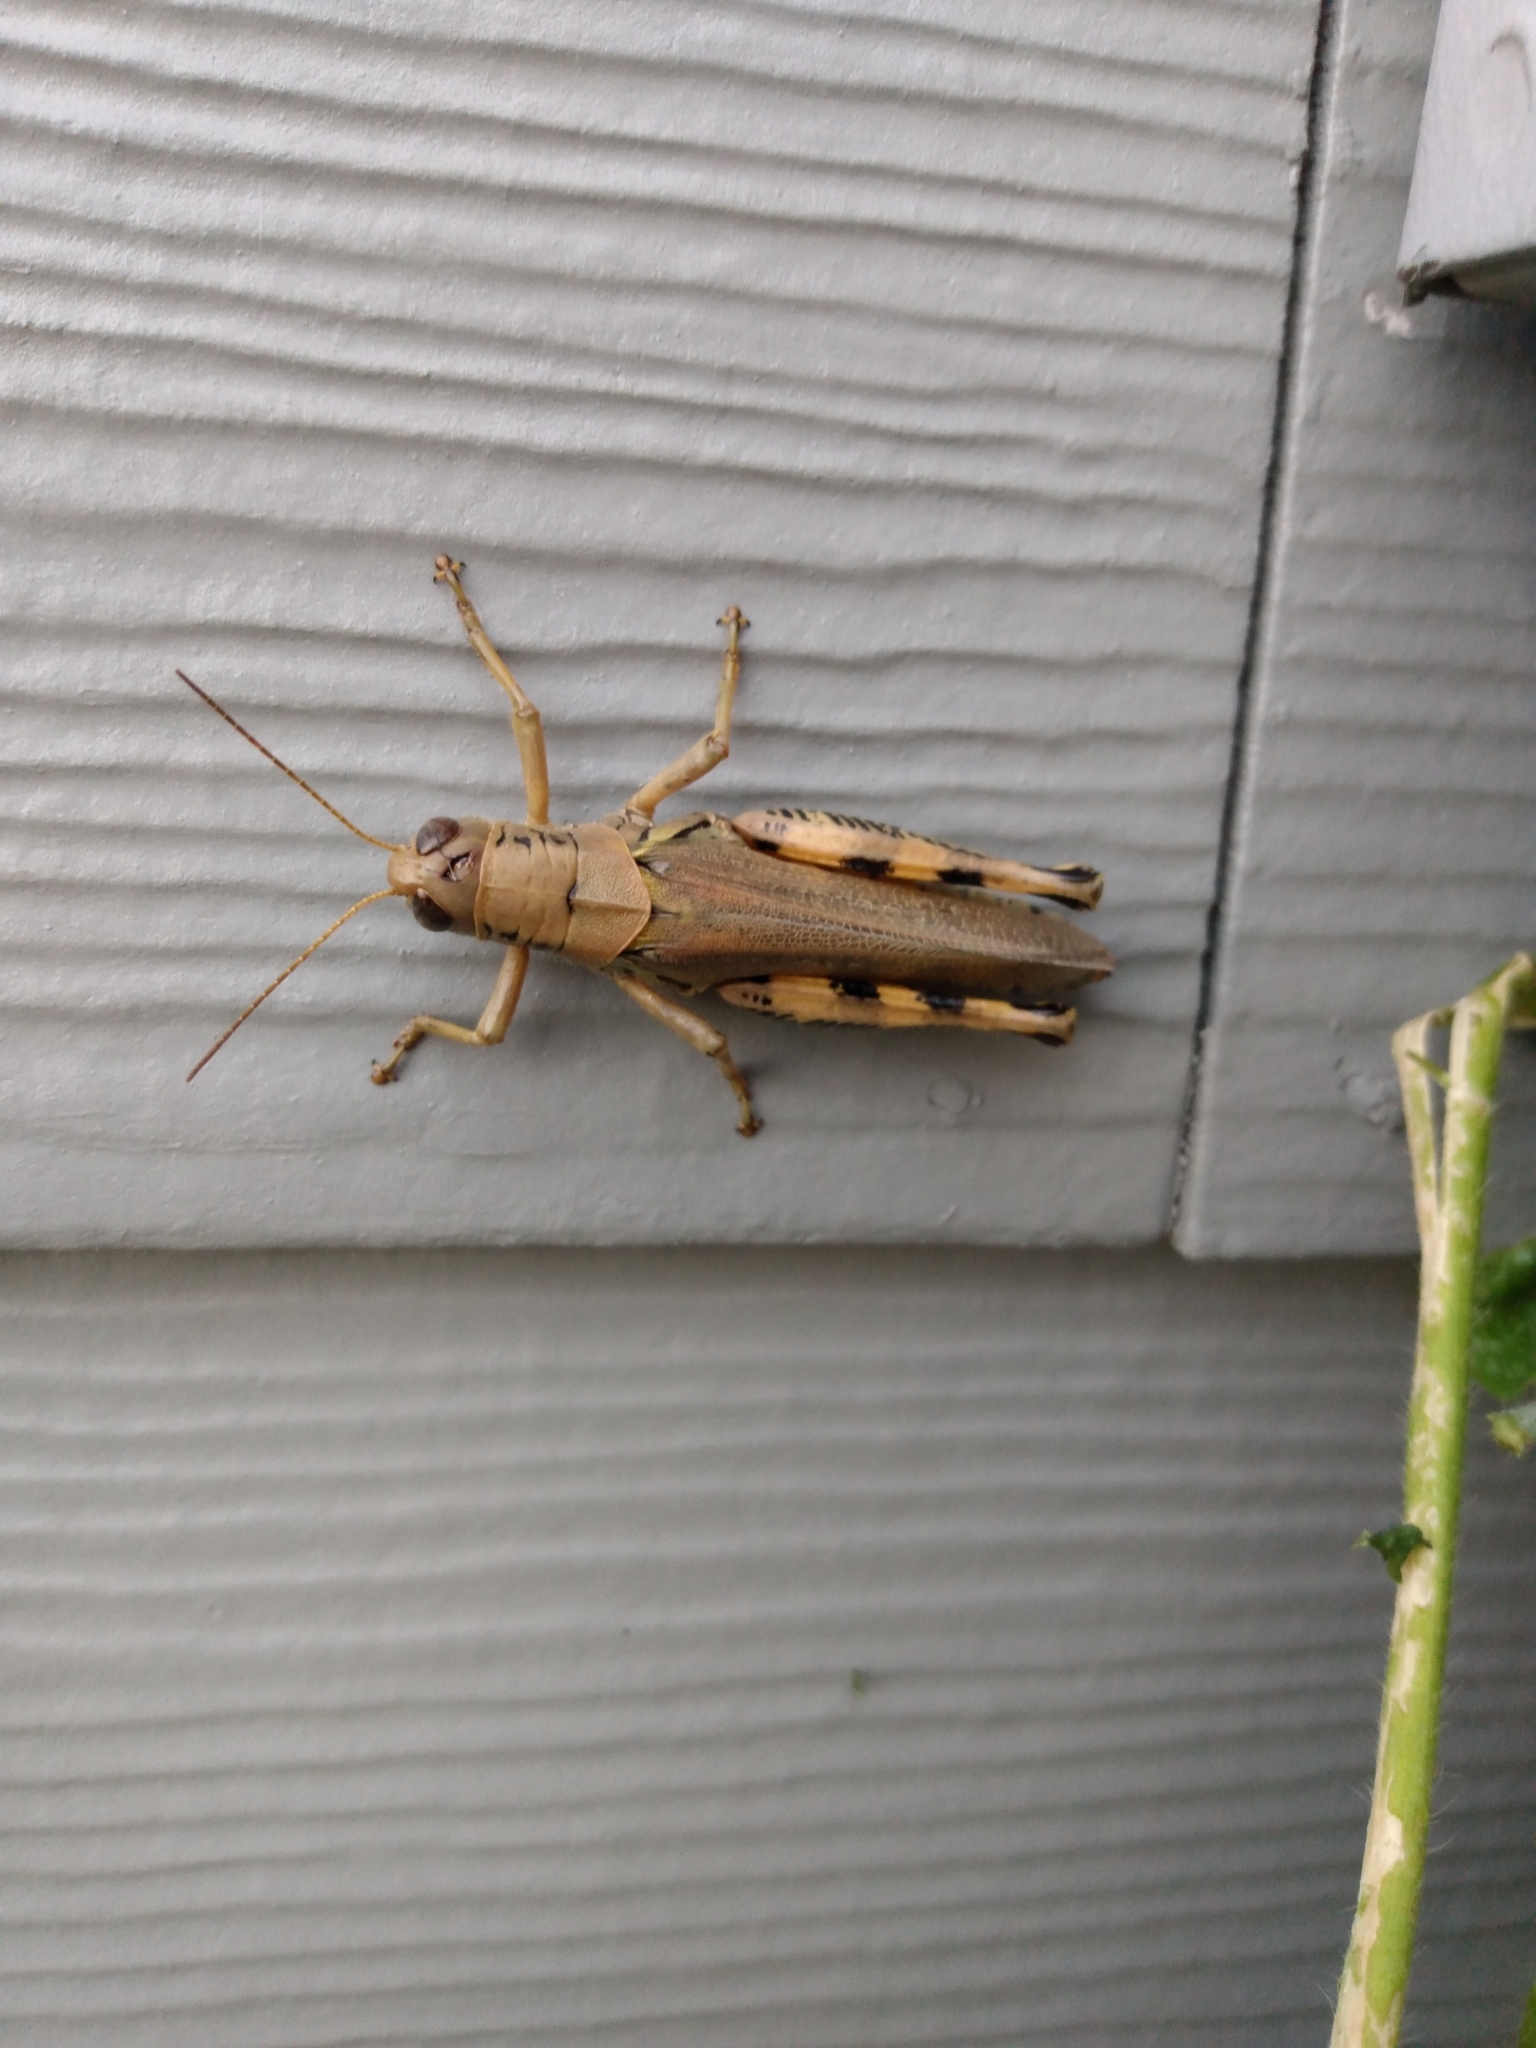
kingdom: Animalia
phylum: Arthropoda
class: Insecta
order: Orthoptera
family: Acrididae
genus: Melanoplus
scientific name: Melanoplus differentialis
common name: Differential grasshopper
